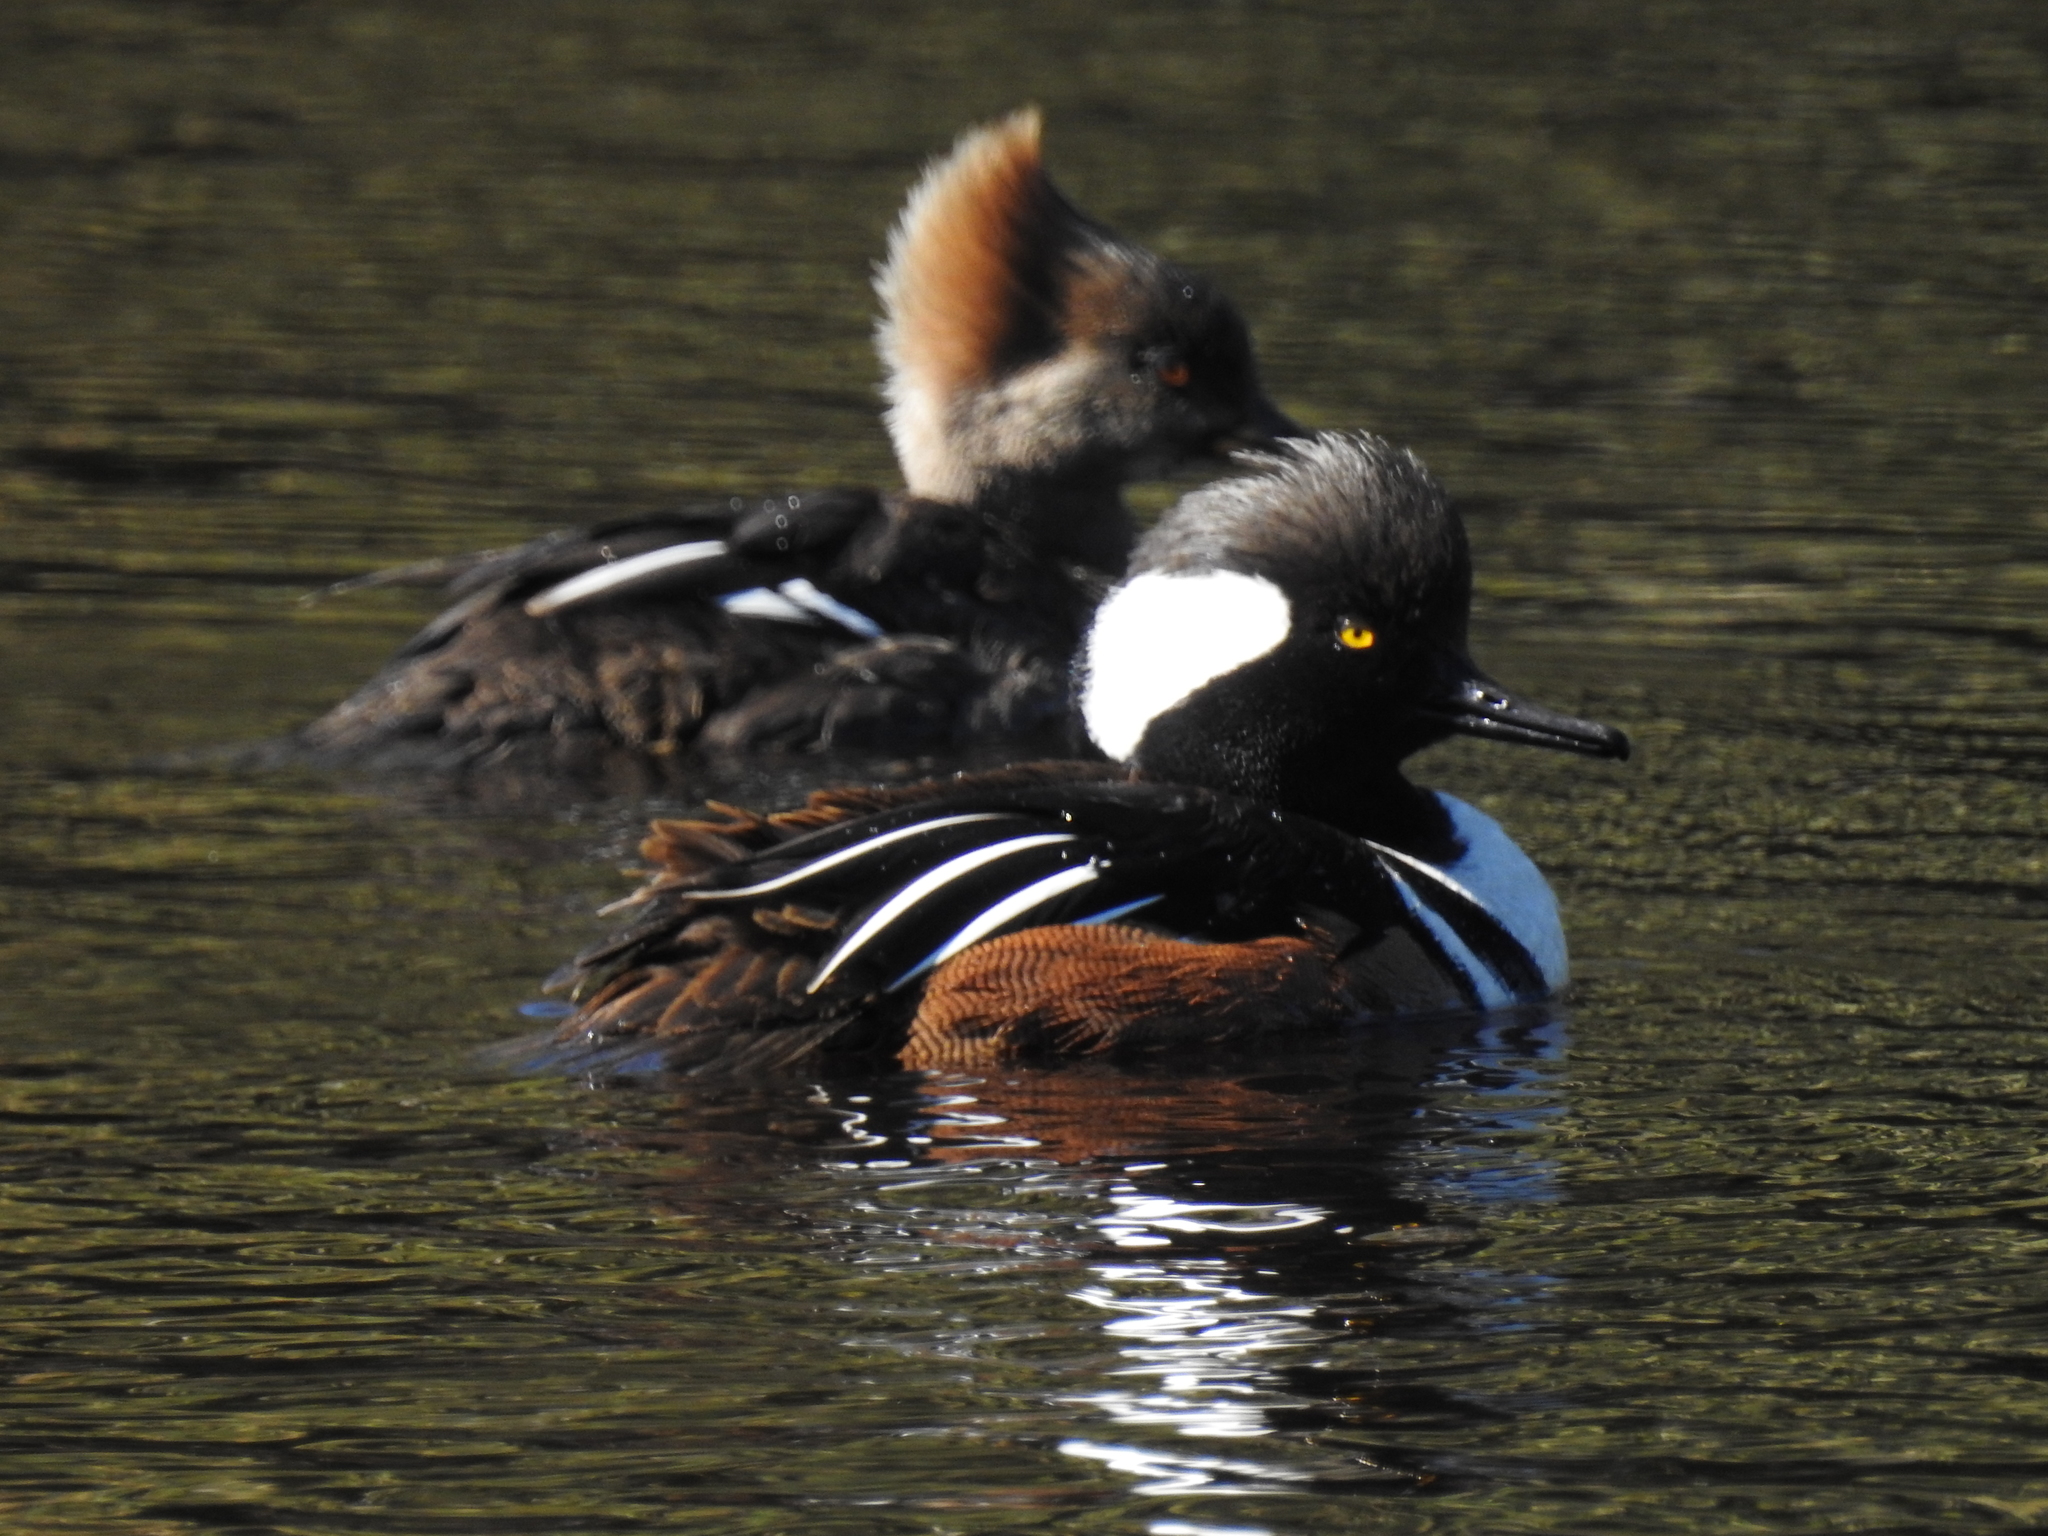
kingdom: Animalia
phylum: Chordata
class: Aves
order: Anseriformes
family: Anatidae
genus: Lophodytes
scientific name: Lophodytes cucullatus
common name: Hooded merganser
